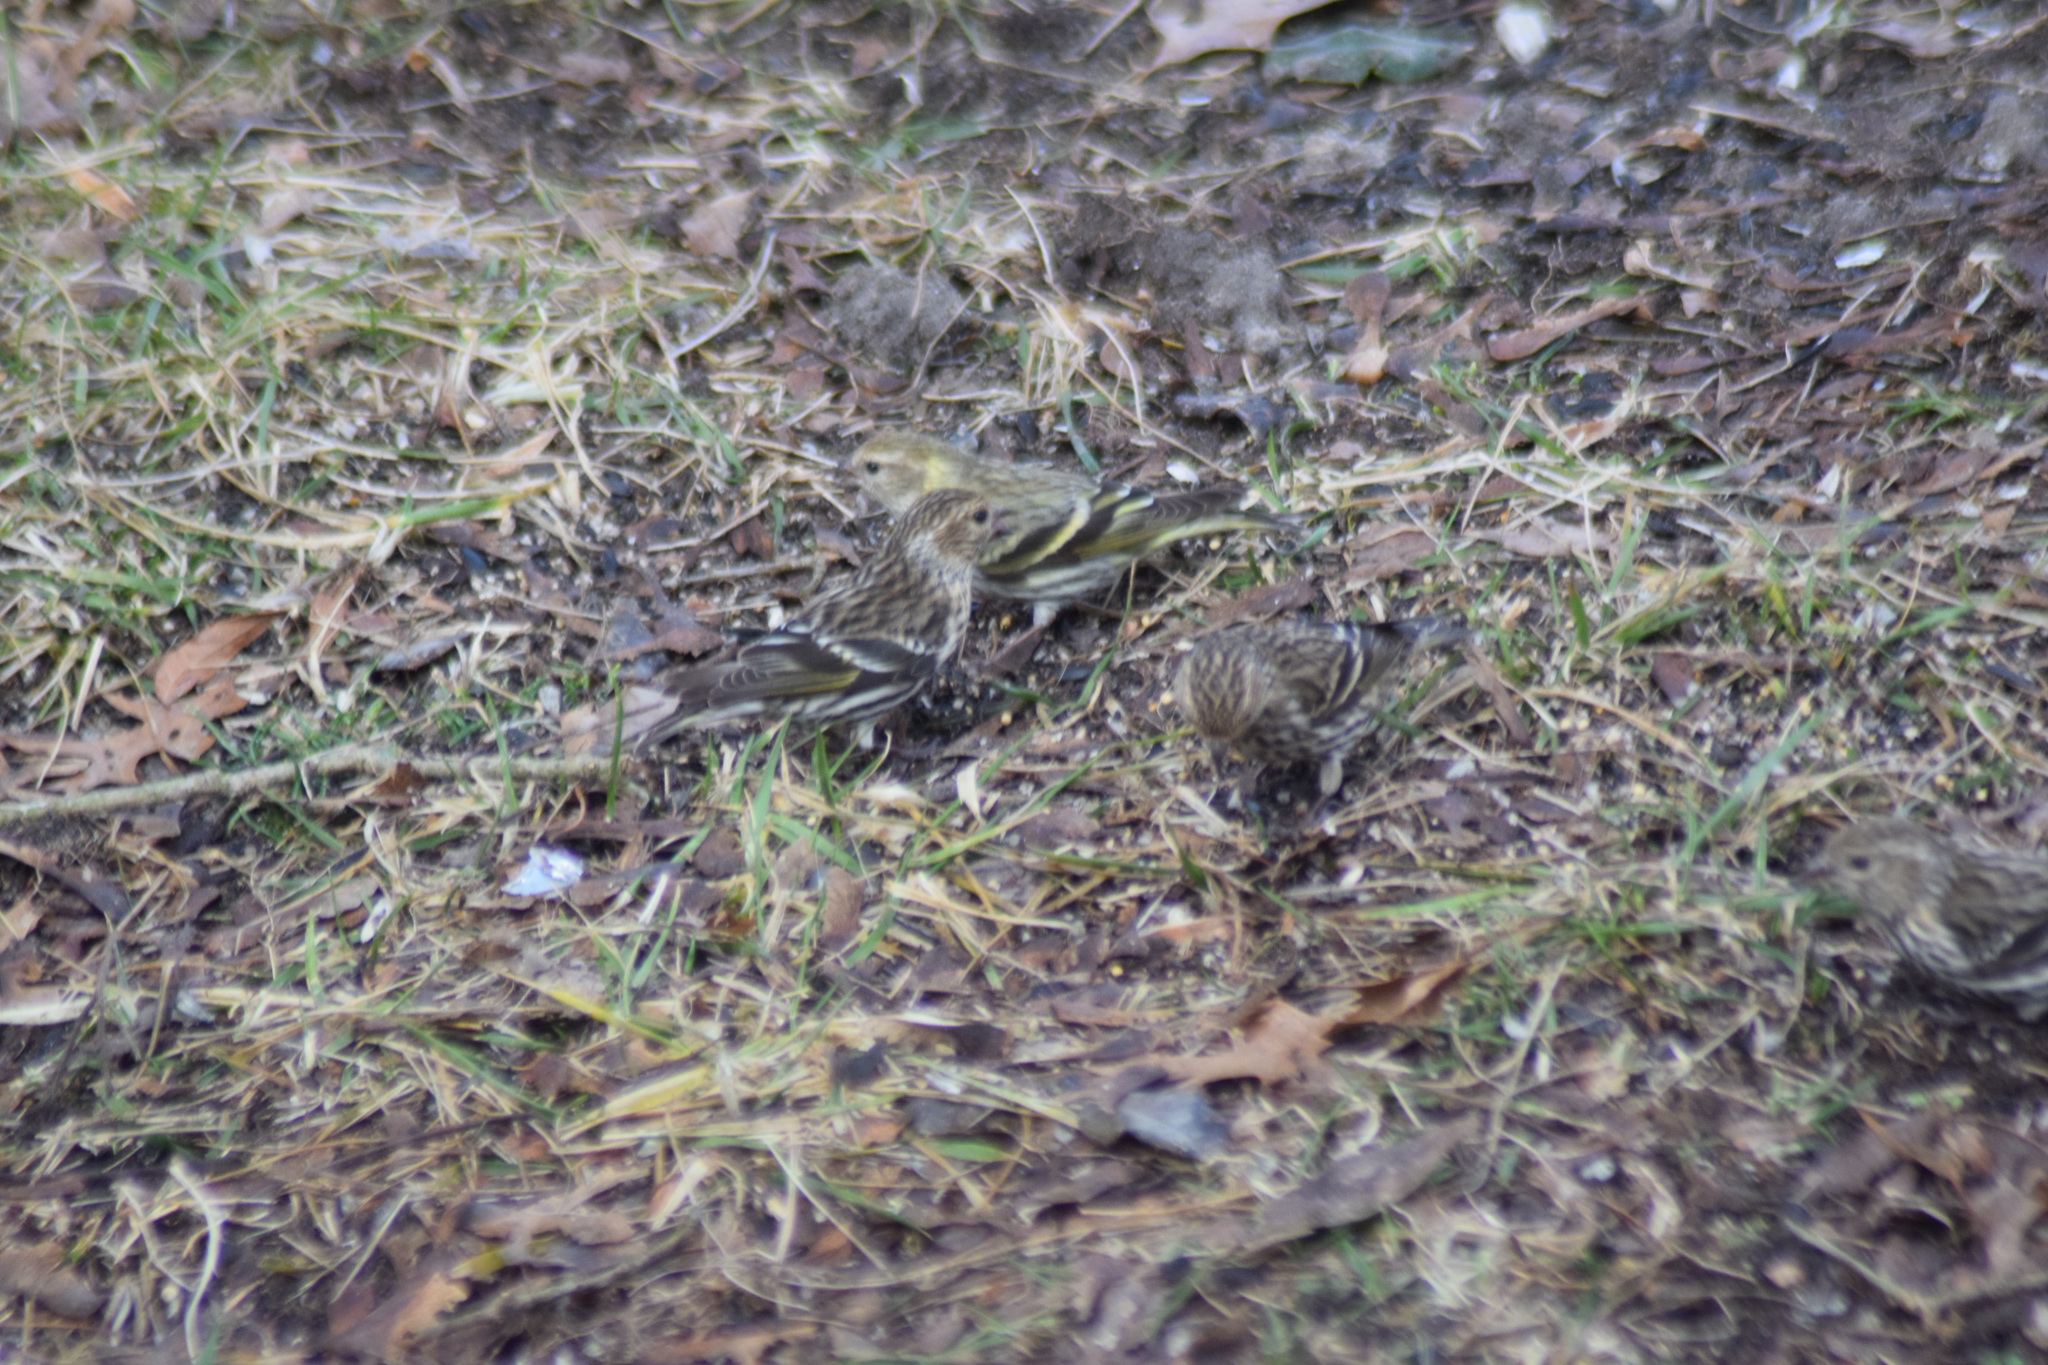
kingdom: Animalia
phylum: Chordata
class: Aves
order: Passeriformes
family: Fringillidae
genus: Spinus
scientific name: Spinus pinus
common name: Pine siskin
